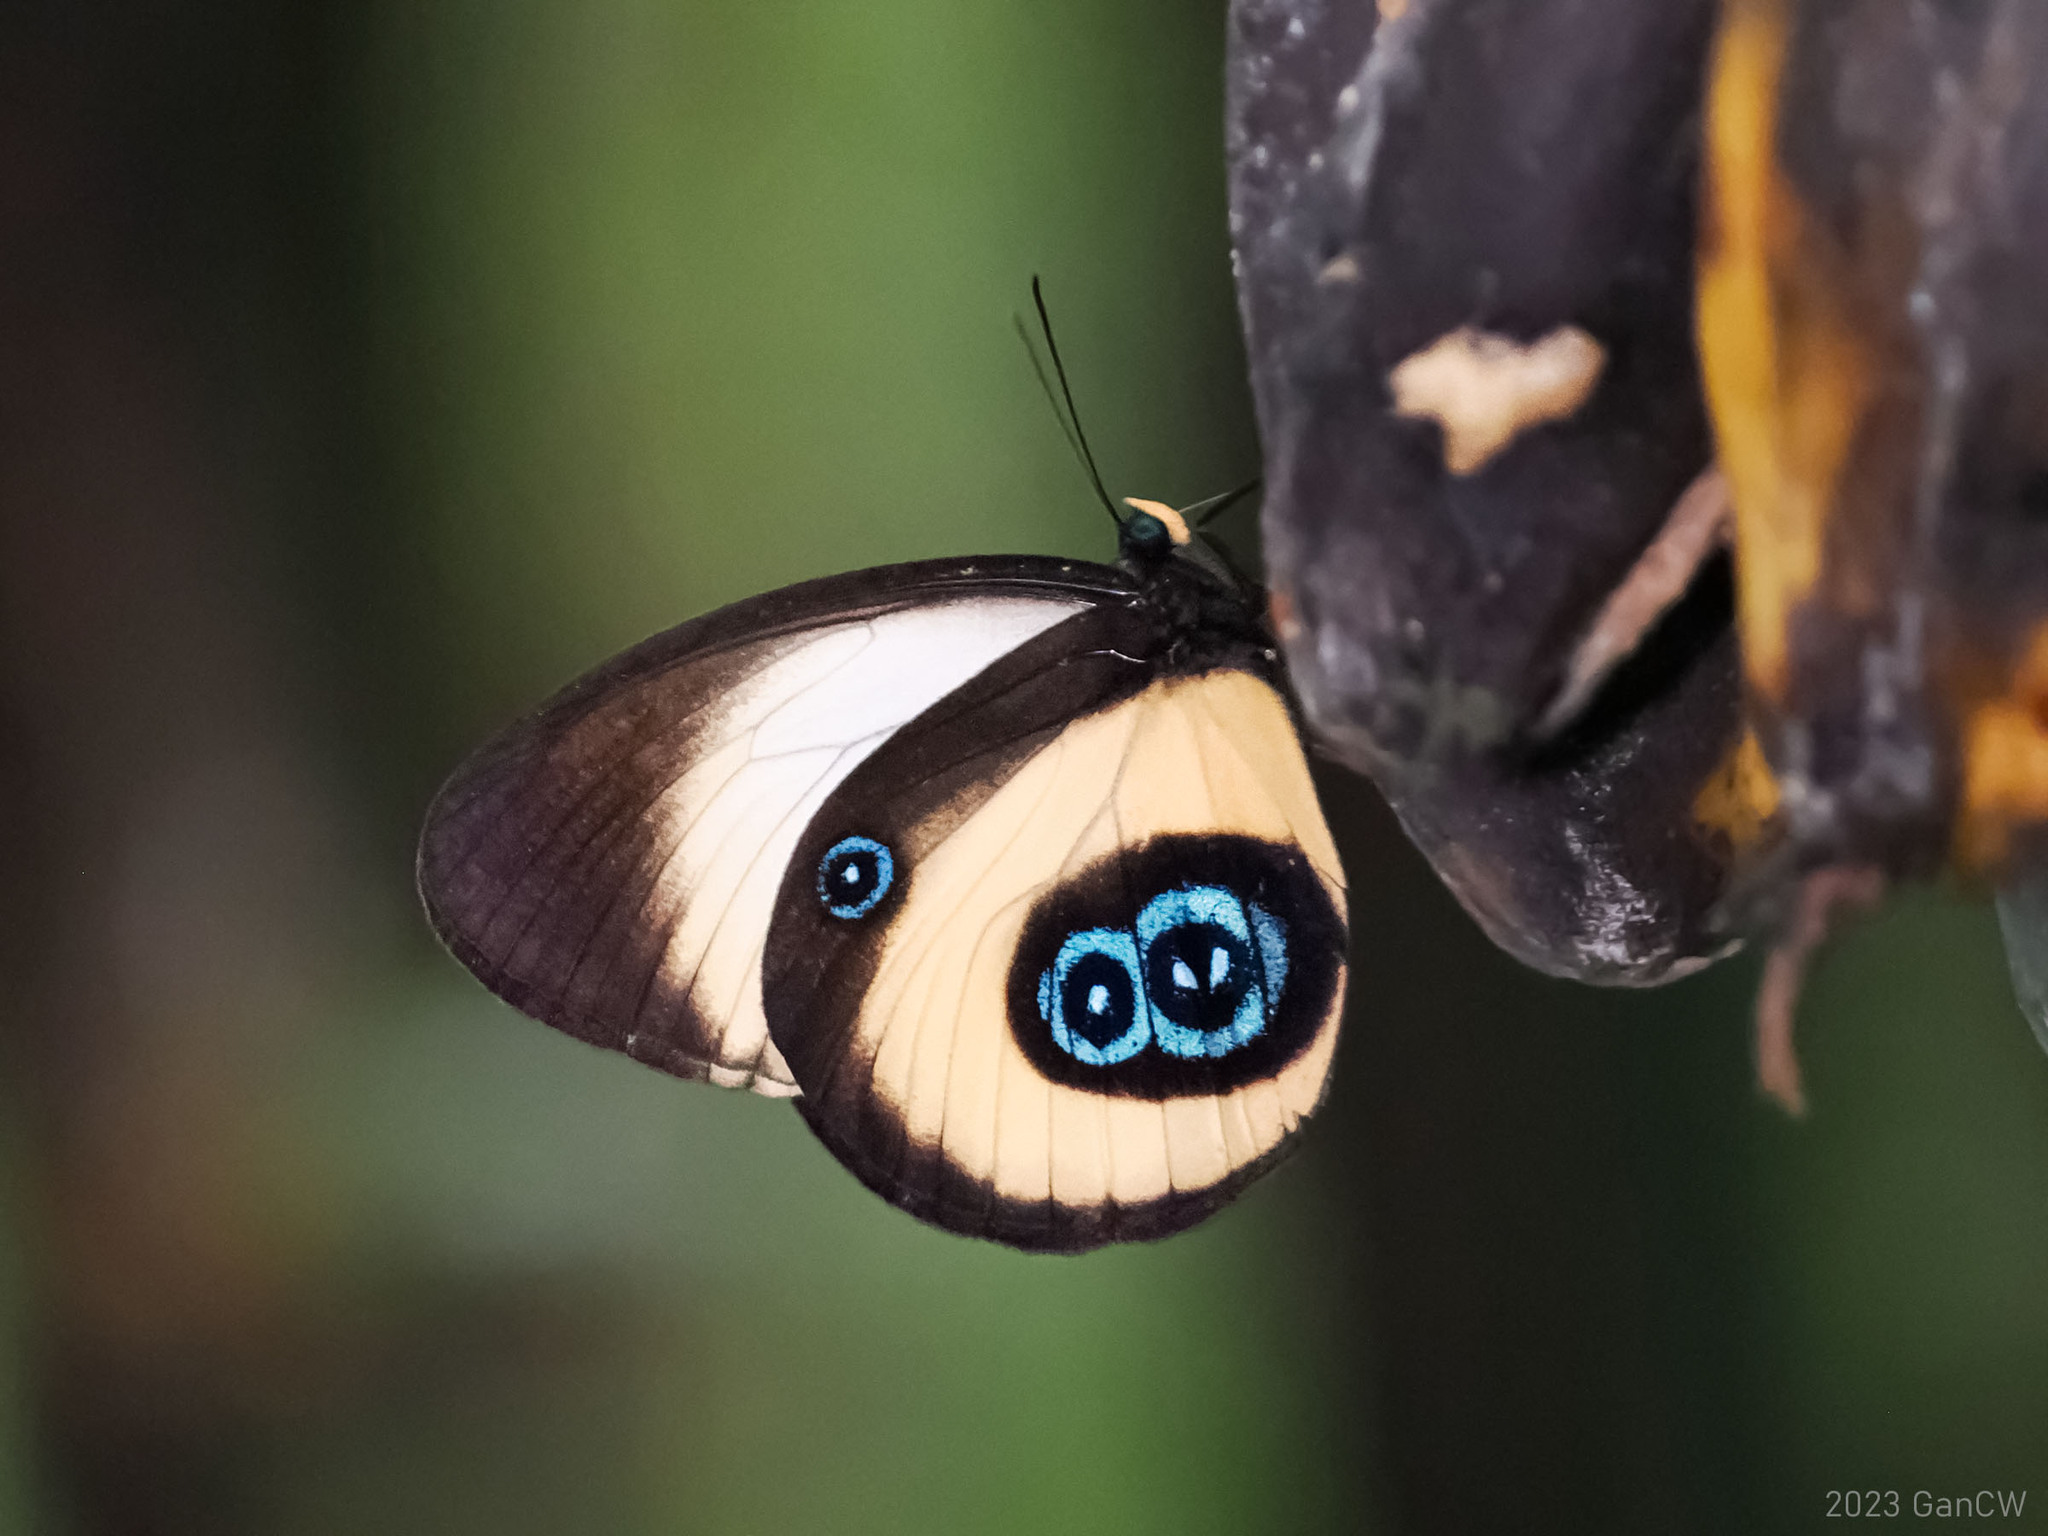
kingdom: Animalia
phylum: Arthropoda
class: Insecta
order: Lepidoptera
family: Nymphalidae
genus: Taenaris
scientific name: Taenaris bioculata
